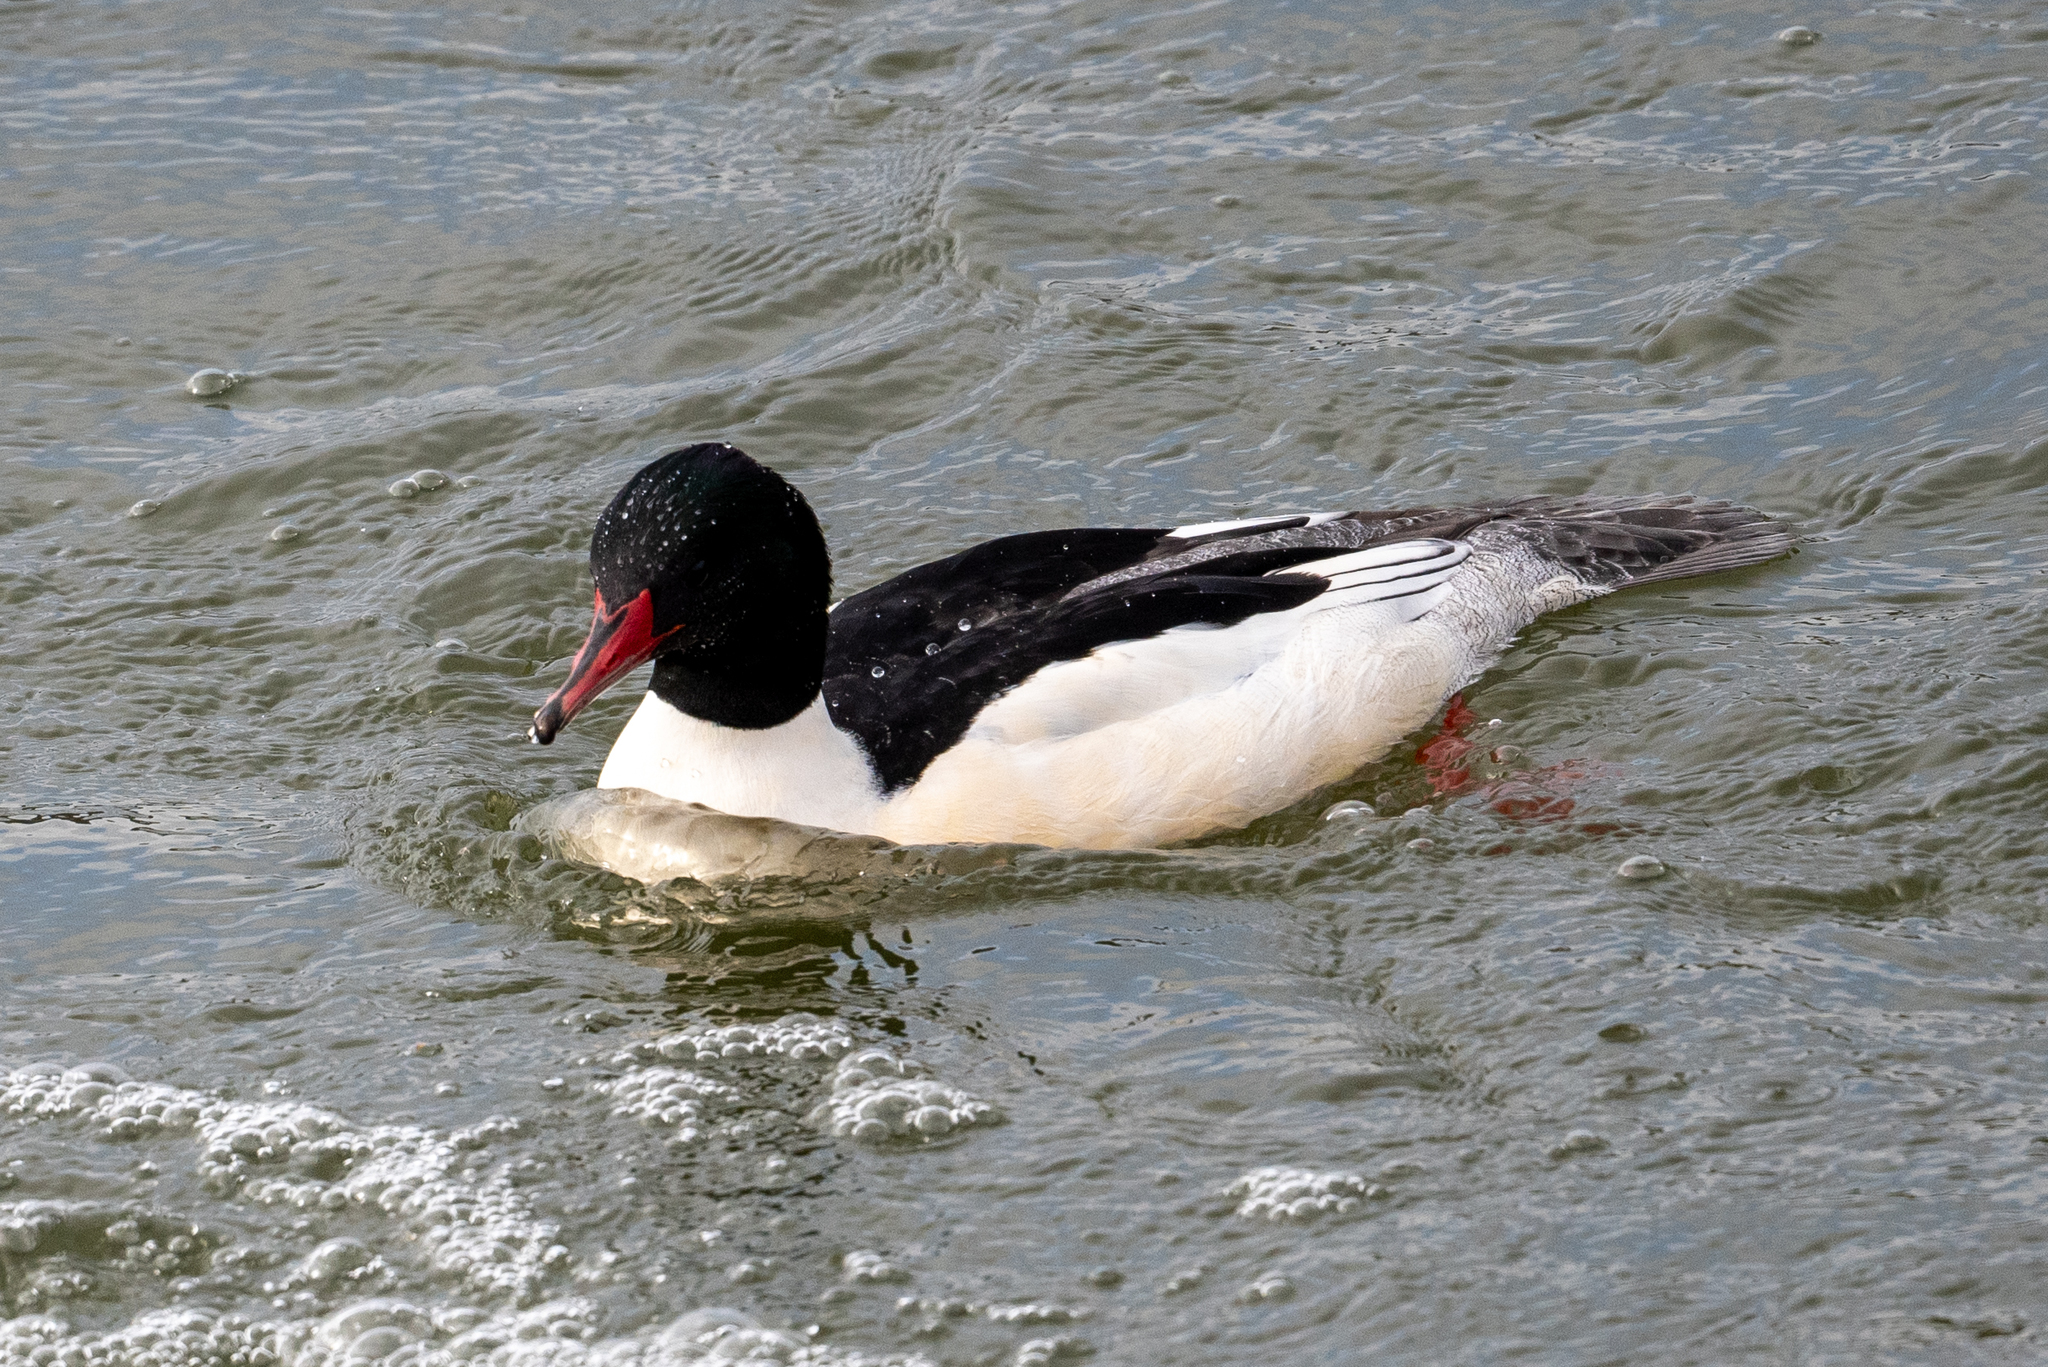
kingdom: Animalia
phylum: Chordata
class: Aves
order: Anseriformes
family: Anatidae
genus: Mergus
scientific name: Mergus merganser
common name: Common merganser
